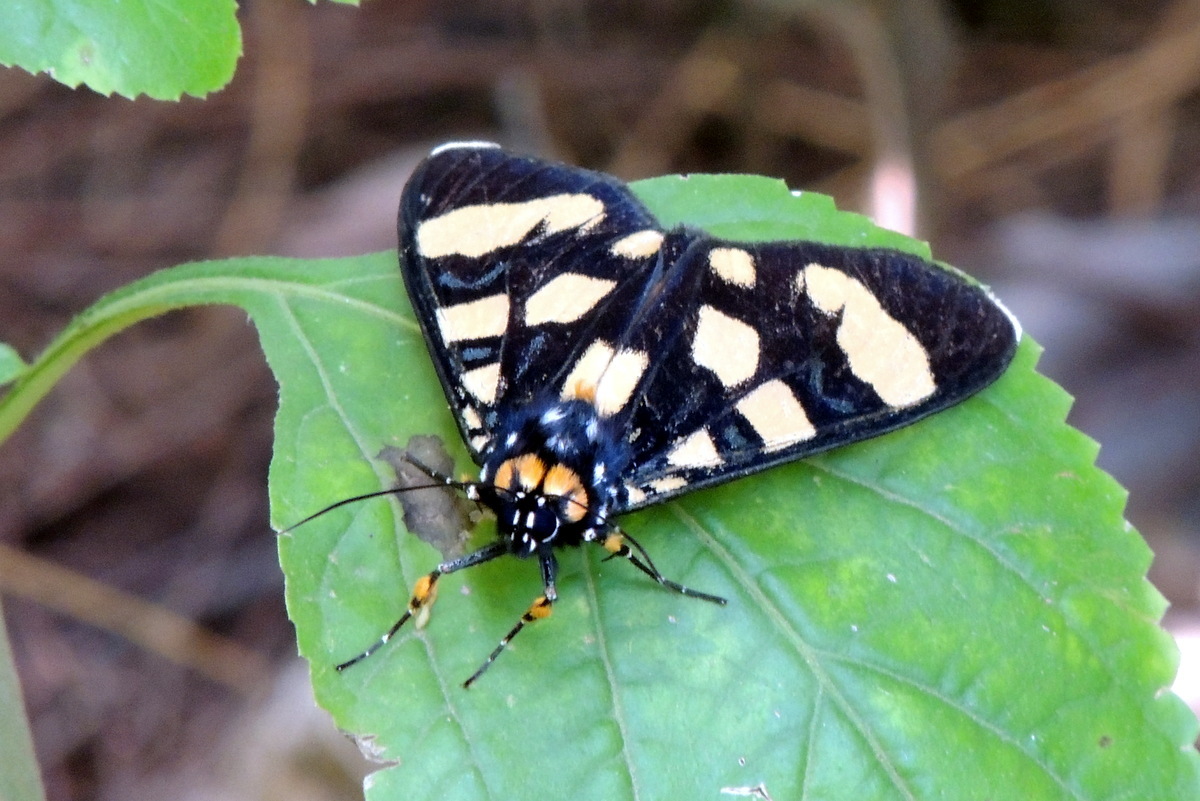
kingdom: Animalia
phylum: Arthropoda
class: Insecta
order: Lepidoptera
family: Noctuidae
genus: Heraclia
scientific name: Heraclia geryon
